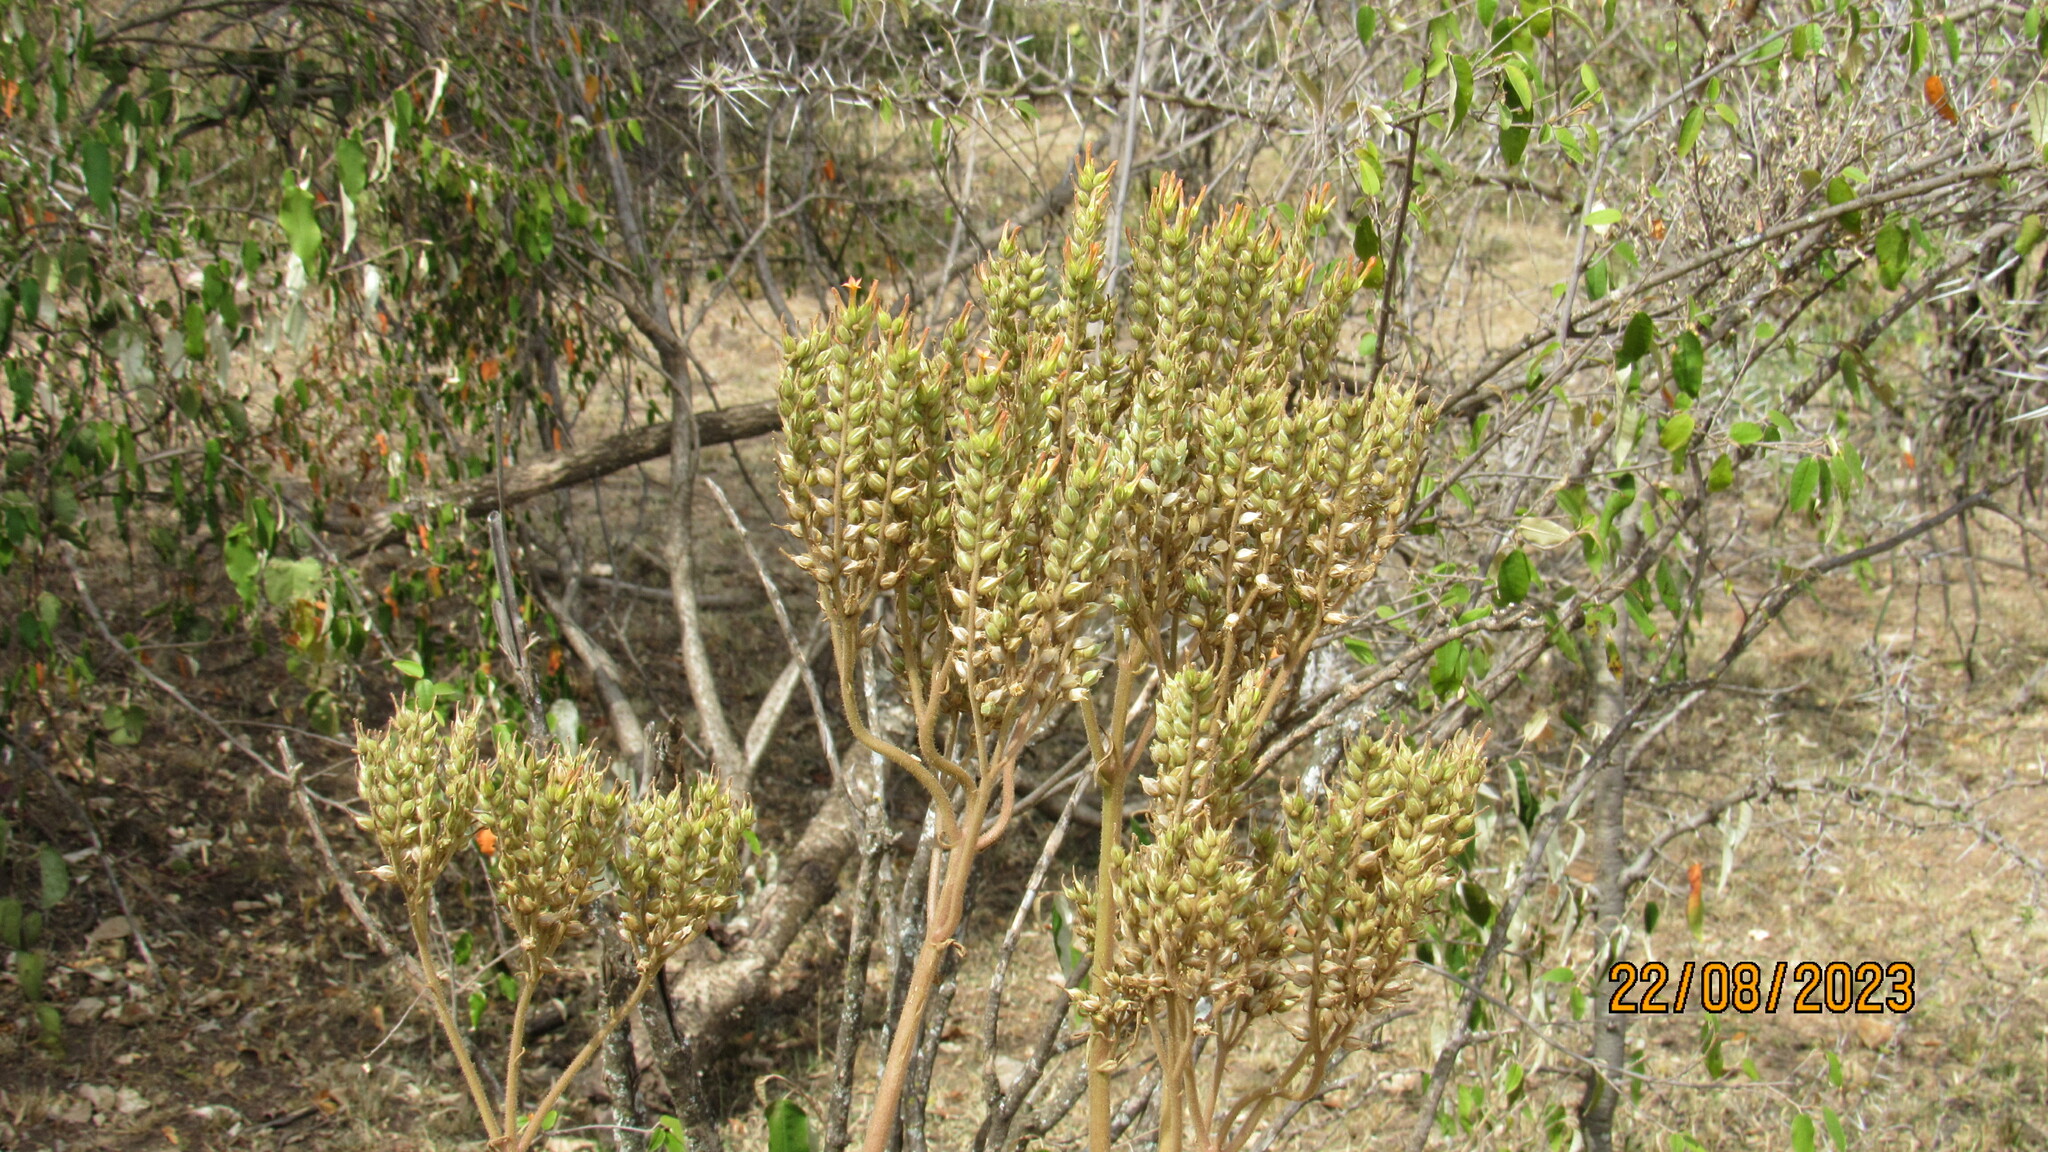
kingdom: Plantae
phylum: Tracheophyta
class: Magnoliopsida
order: Saxifragales
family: Crassulaceae
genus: Kalanchoe
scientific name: Kalanchoe lanceolata
